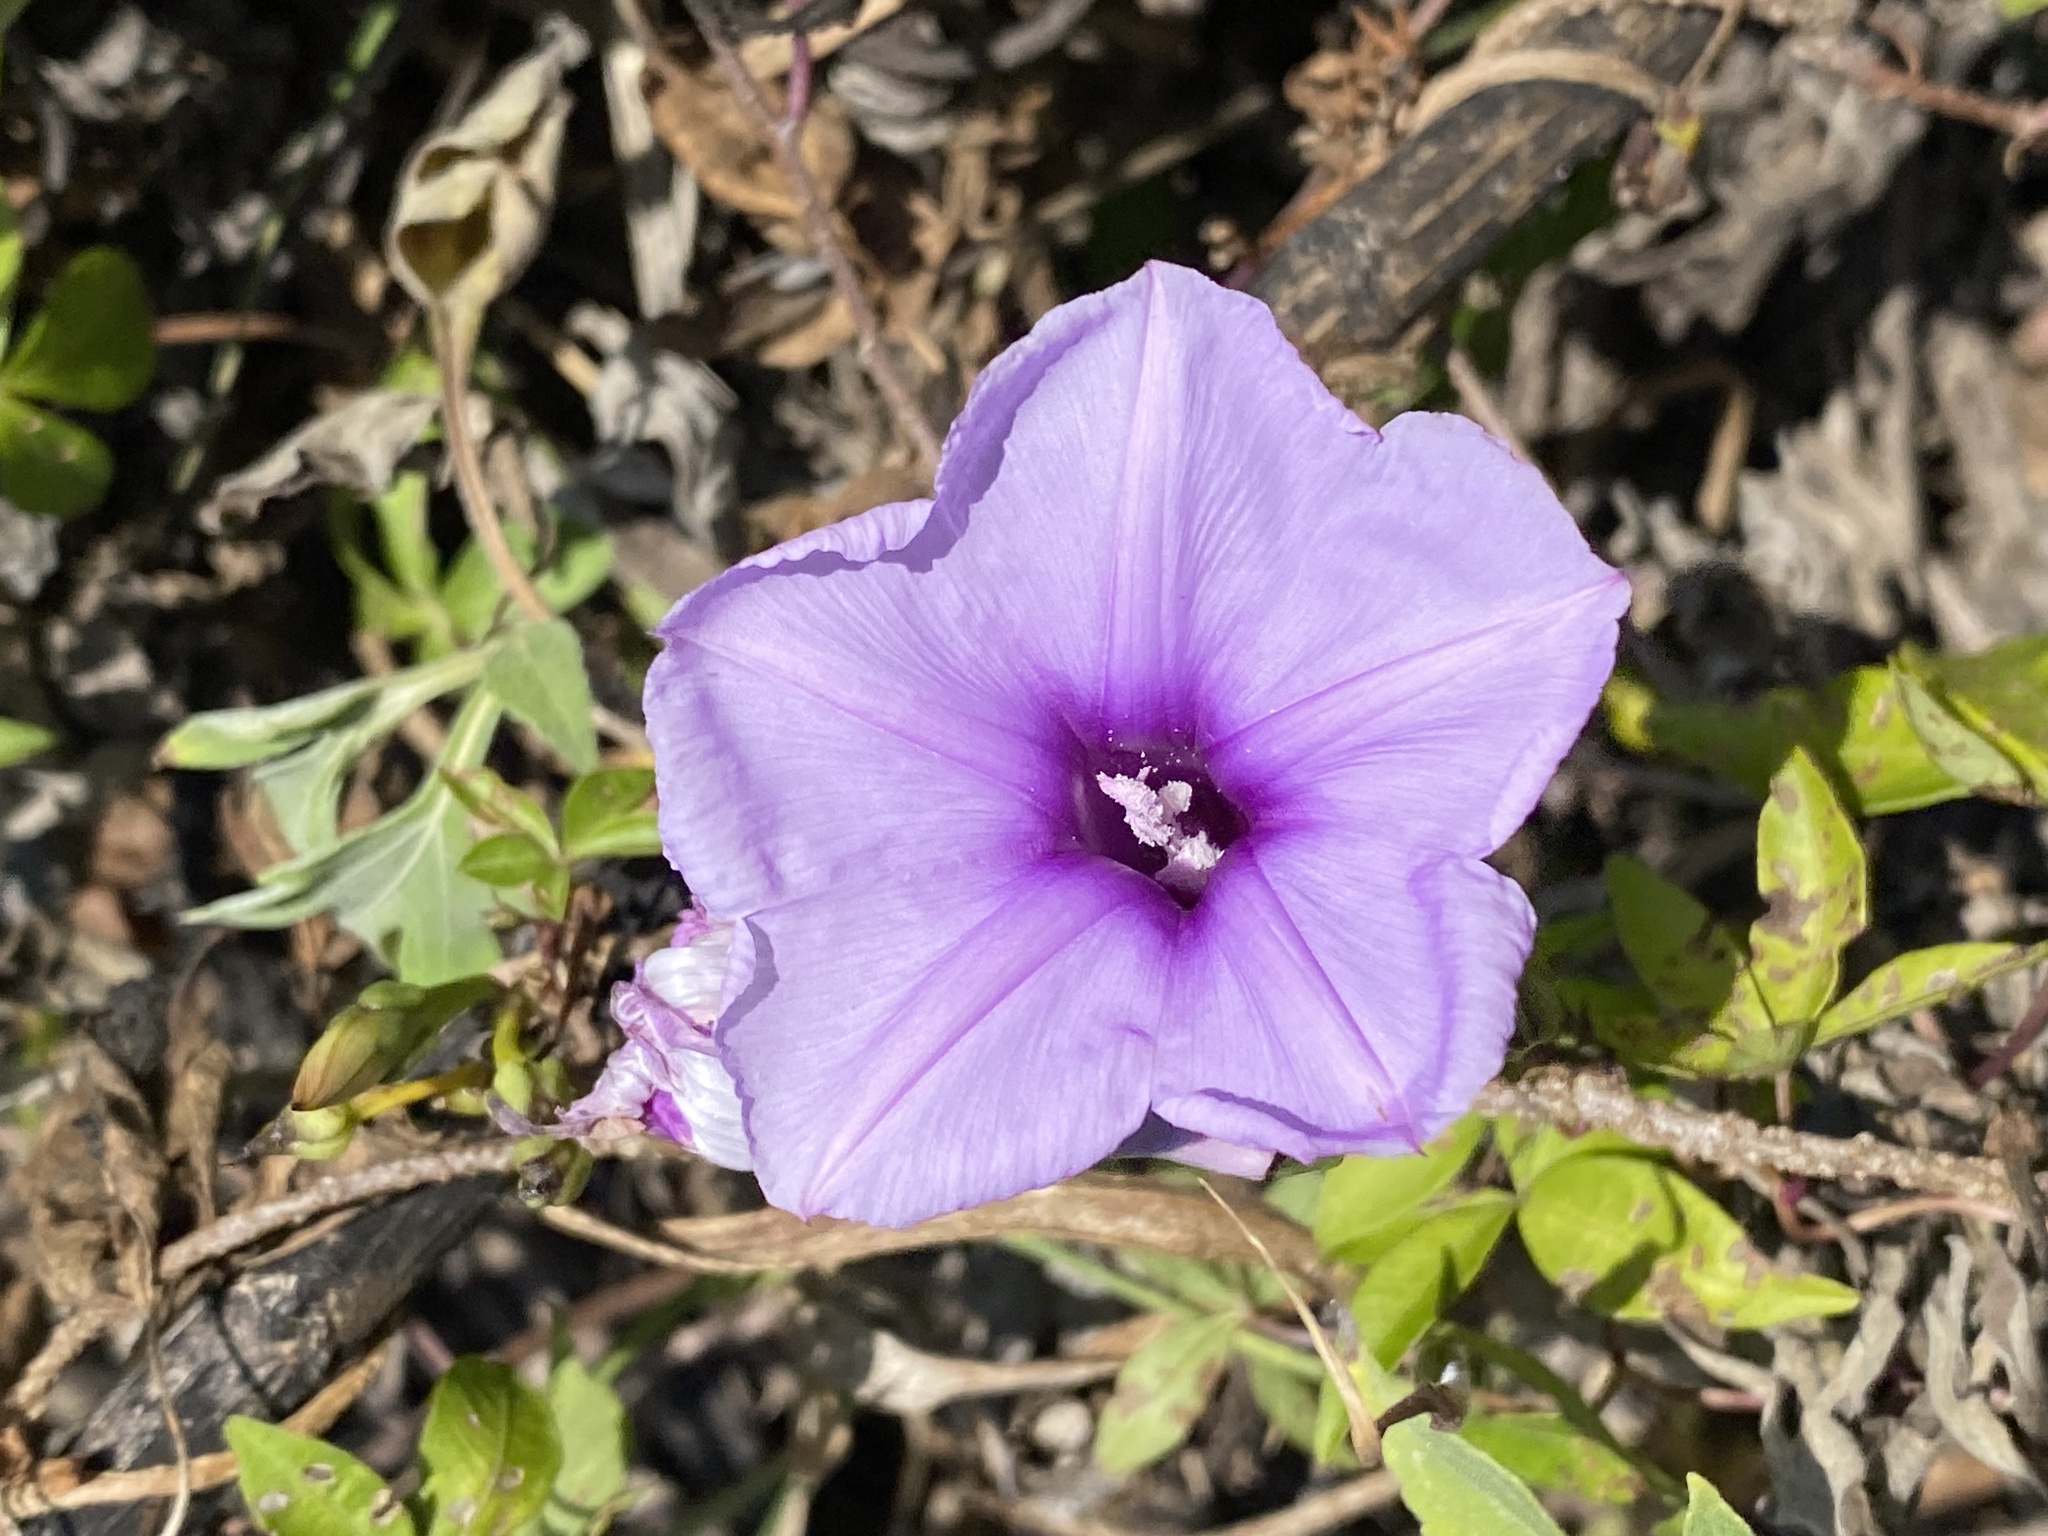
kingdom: Plantae
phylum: Tracheophyta
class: Magnoliopsida
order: Solanales
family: Convolvulaceae
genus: Ipomoea
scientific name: Ipomoea cairica
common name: Mile a minute vine
